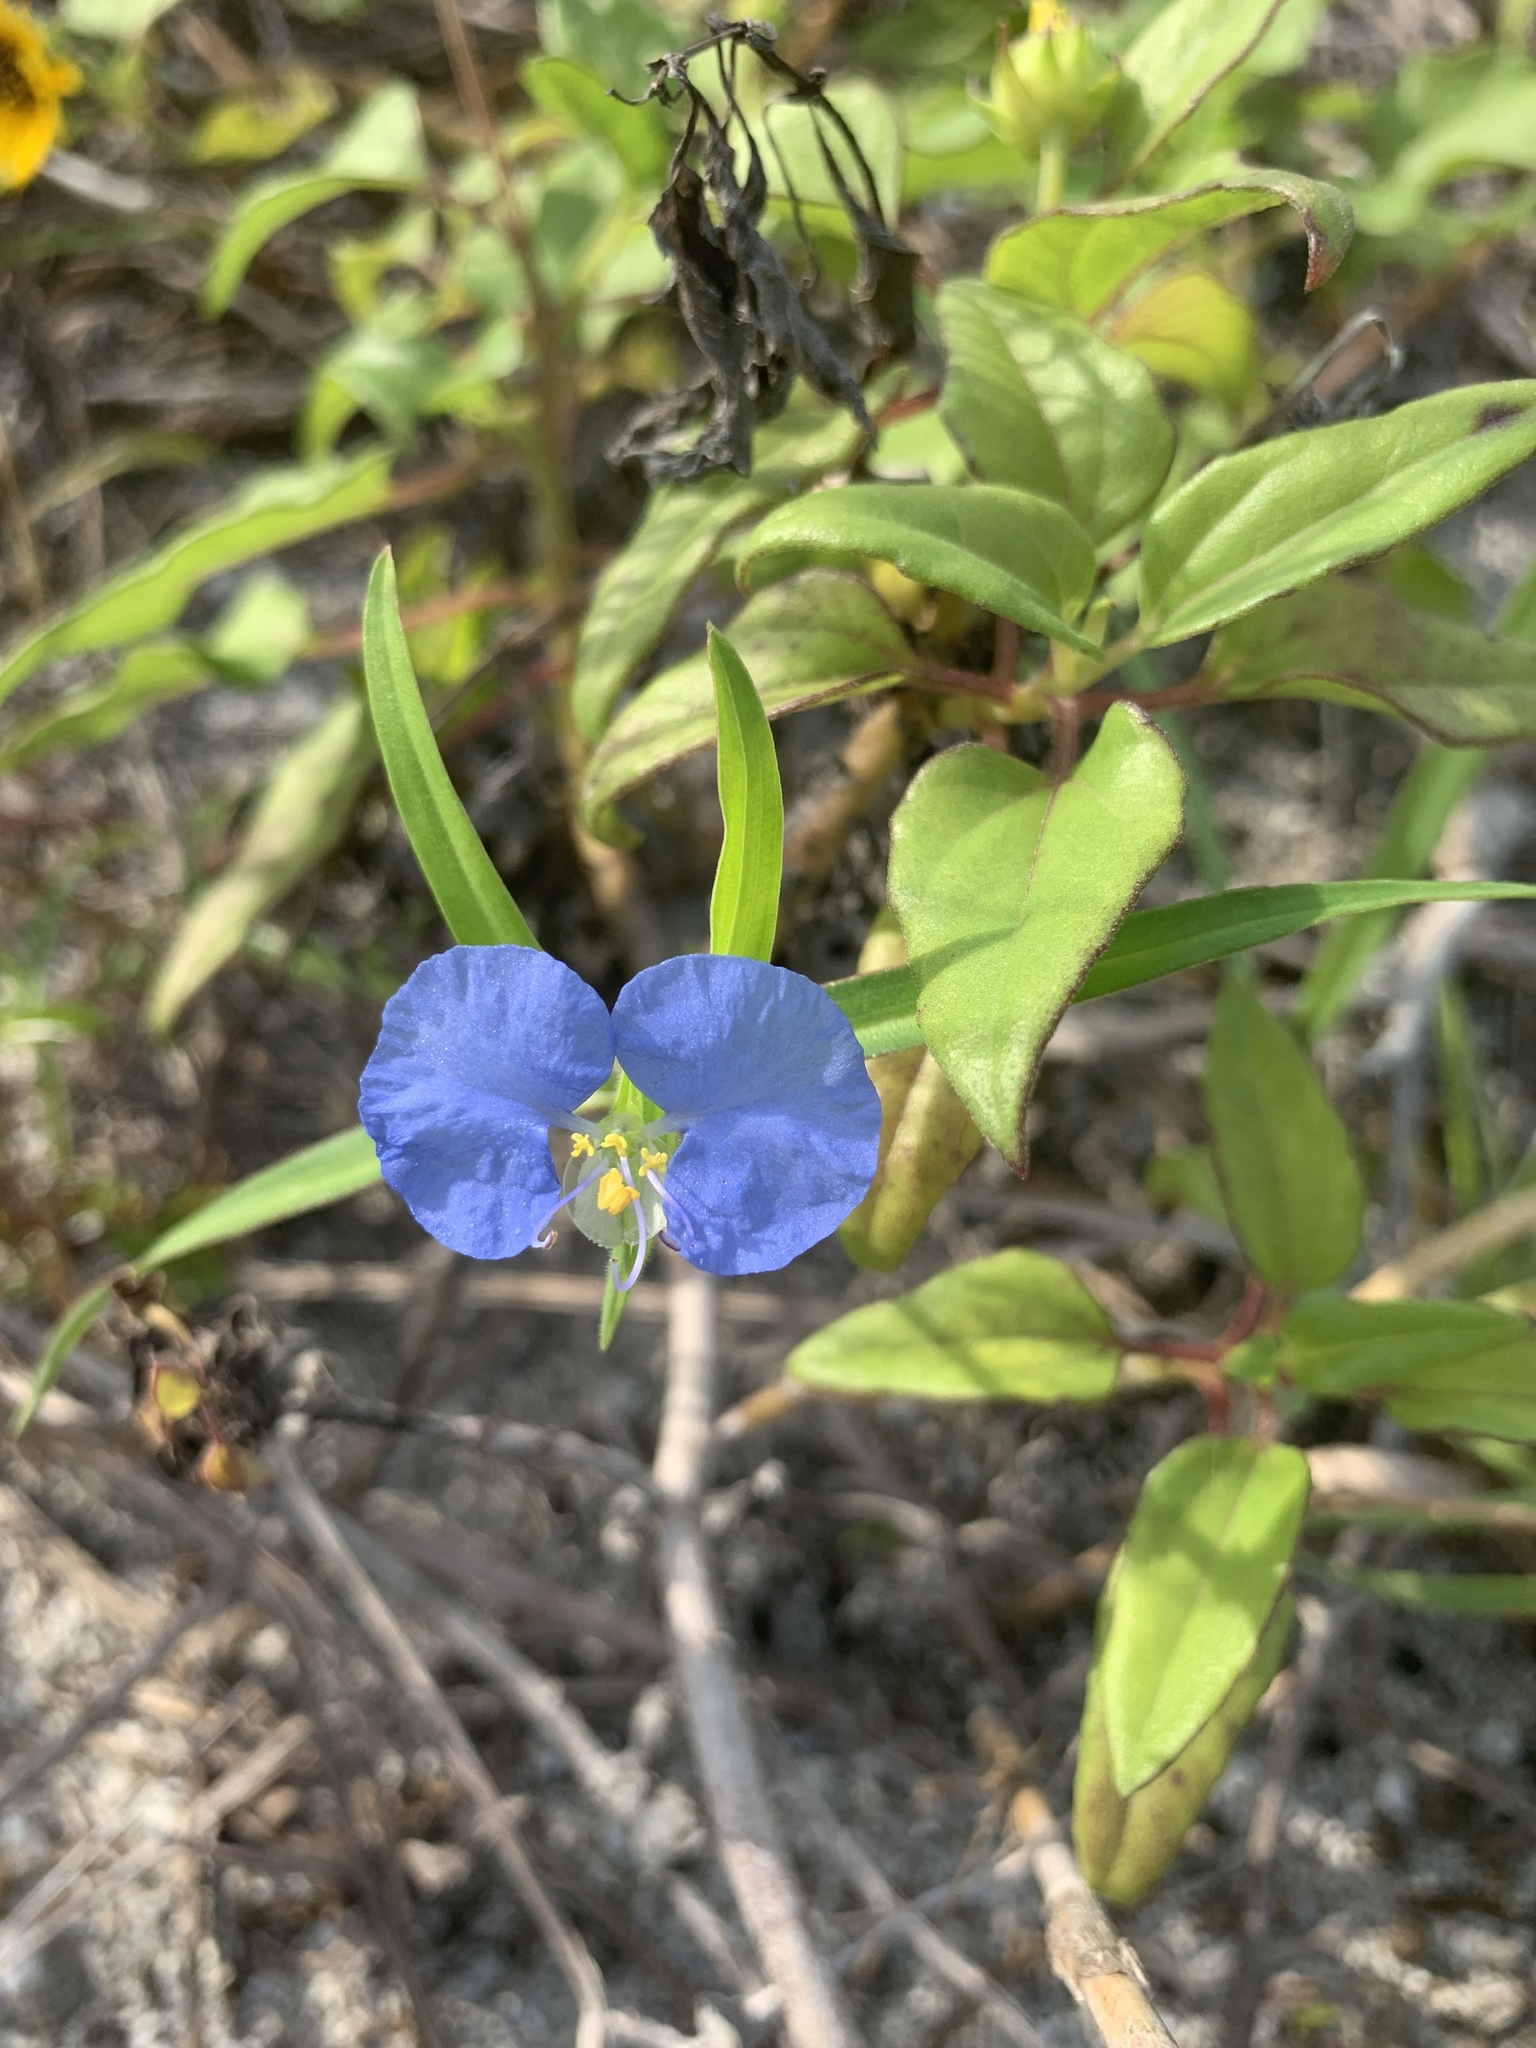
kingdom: Plantae
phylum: Tracheophyta
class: Liliopsida
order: Commelinales
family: Commelinaceae
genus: Commelina
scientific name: Commelina erecta
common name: Blousel blommetjie
